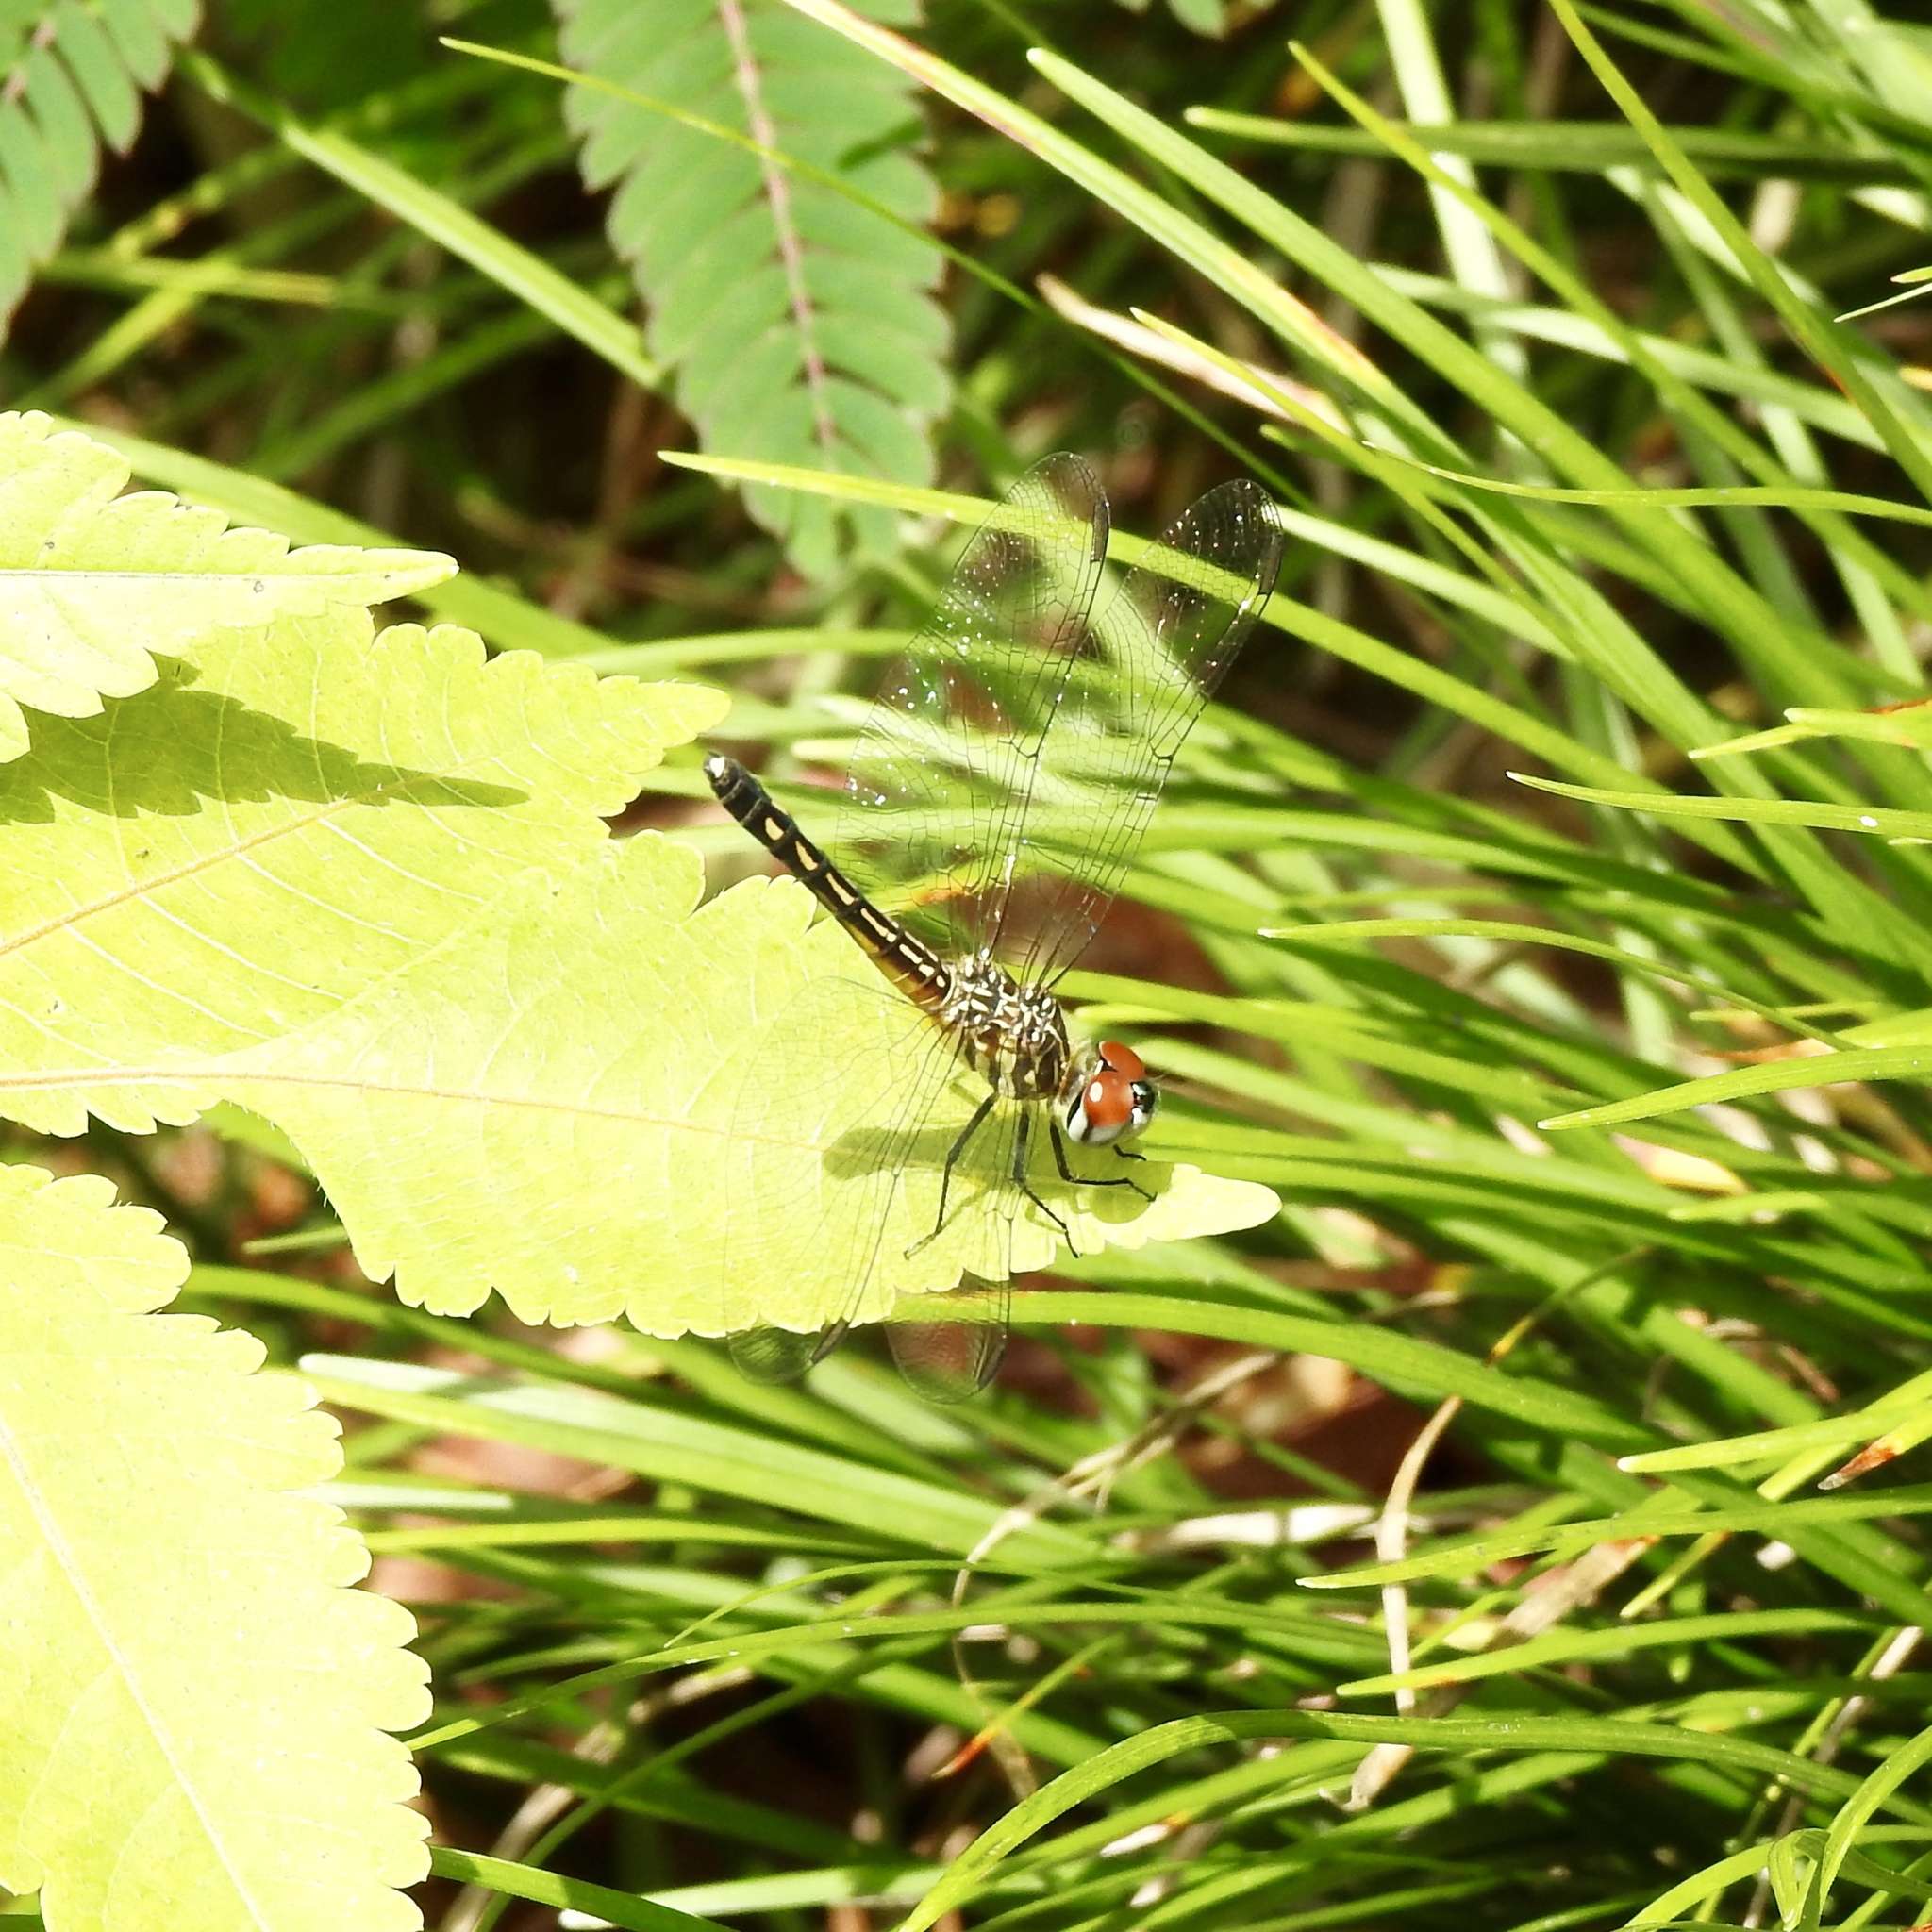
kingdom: Animalia
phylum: Arthropoda
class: Insecta
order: Odonata
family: Libellulidae
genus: Pachydiplax
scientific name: Pachydiplax longipennis
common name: Blue dasher
